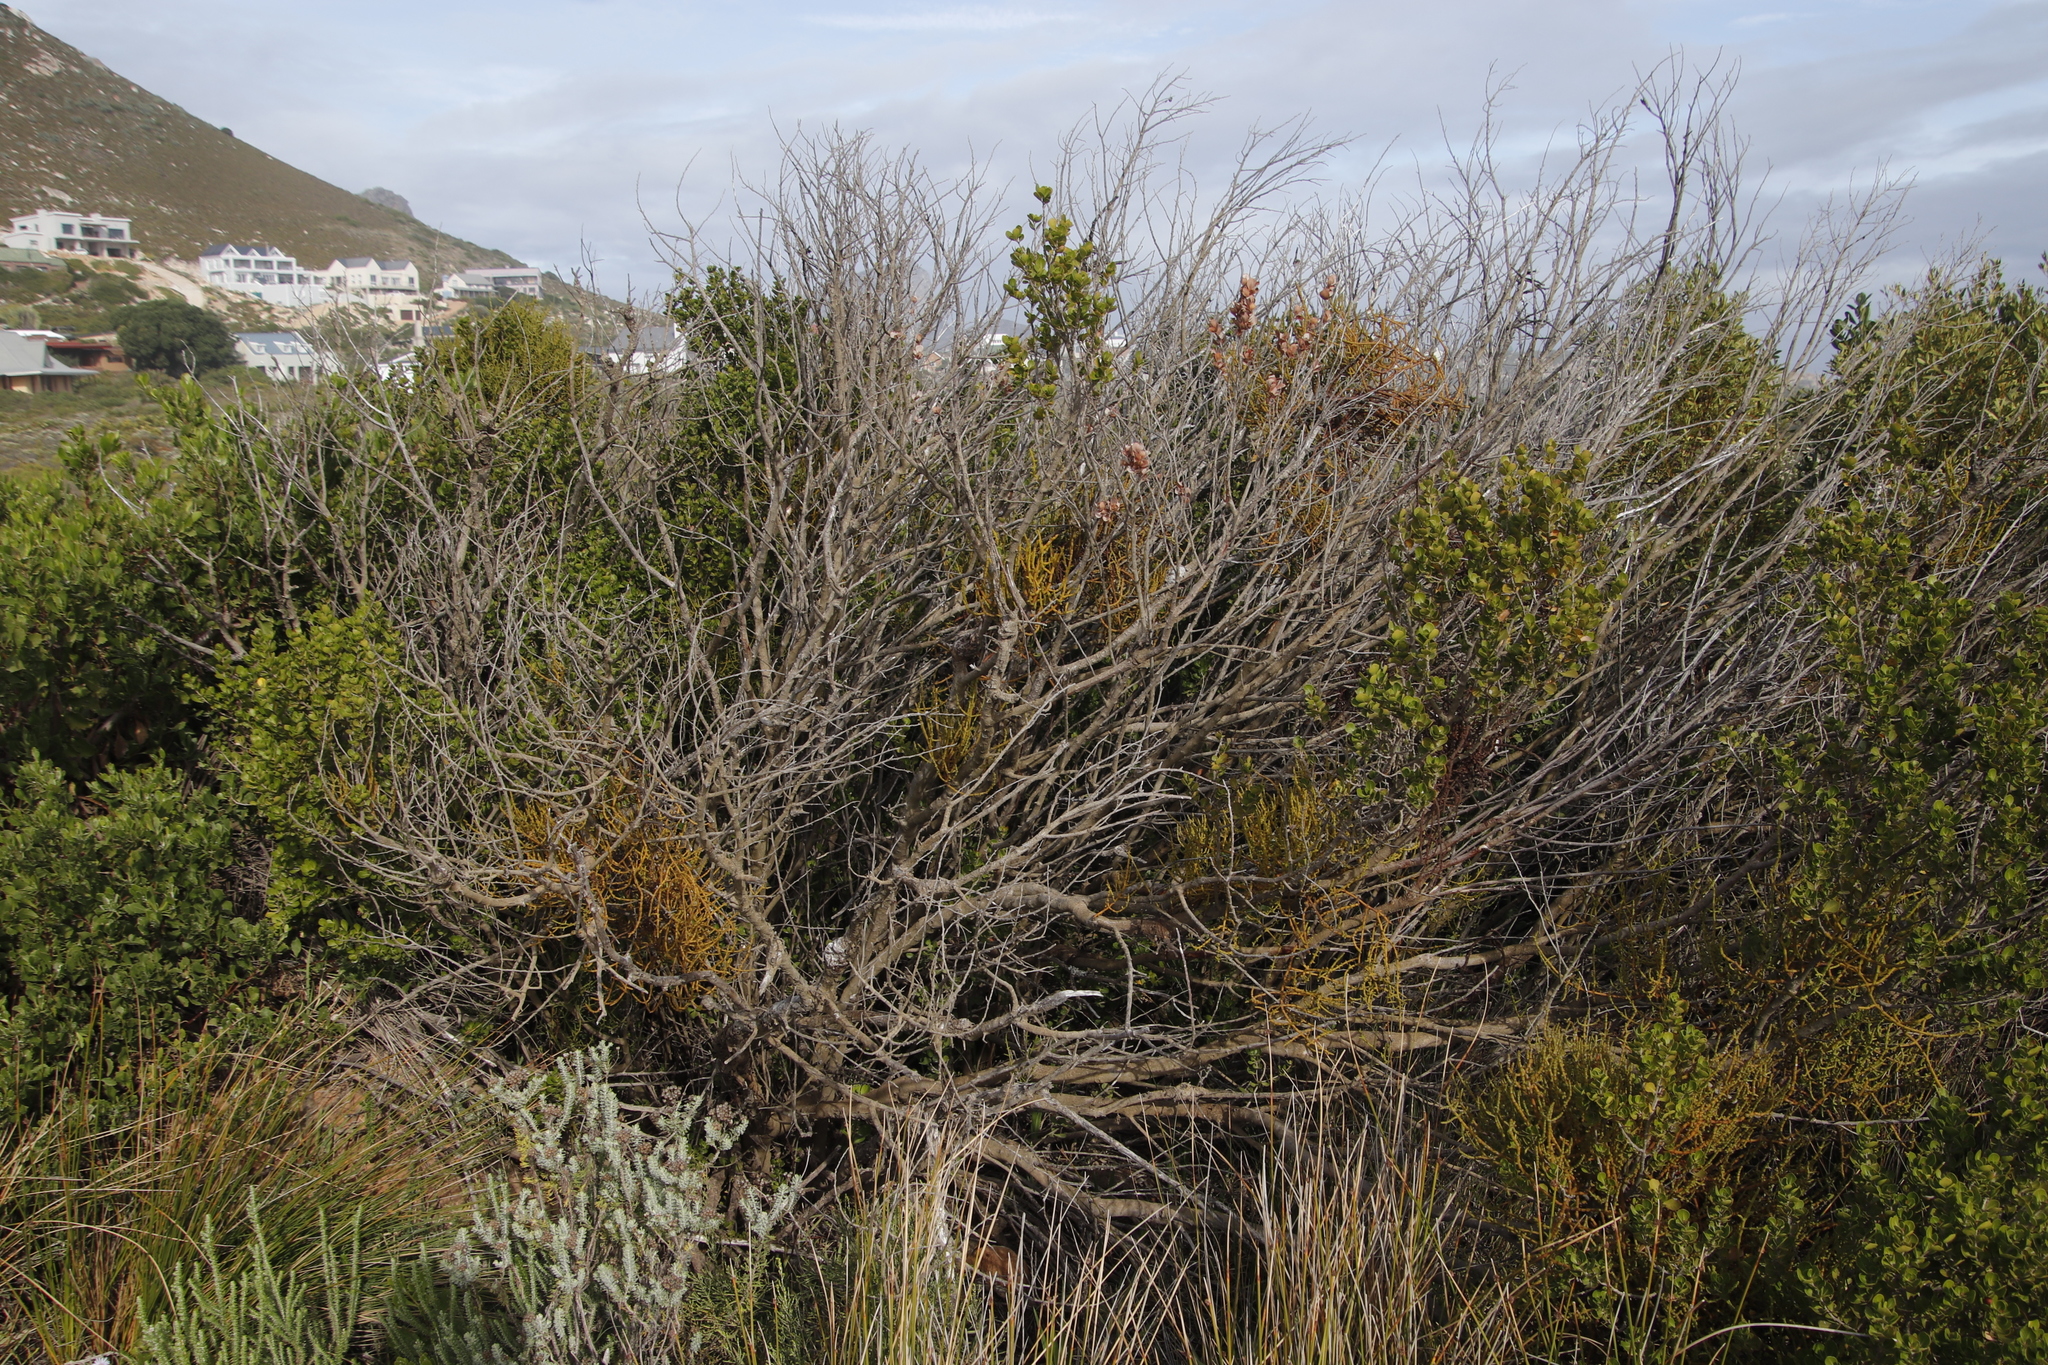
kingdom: Plantae
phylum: Tracheophyta
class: Magnoliopsida
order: Santalales
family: Viscaceae
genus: Viscum
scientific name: Viscum capense
